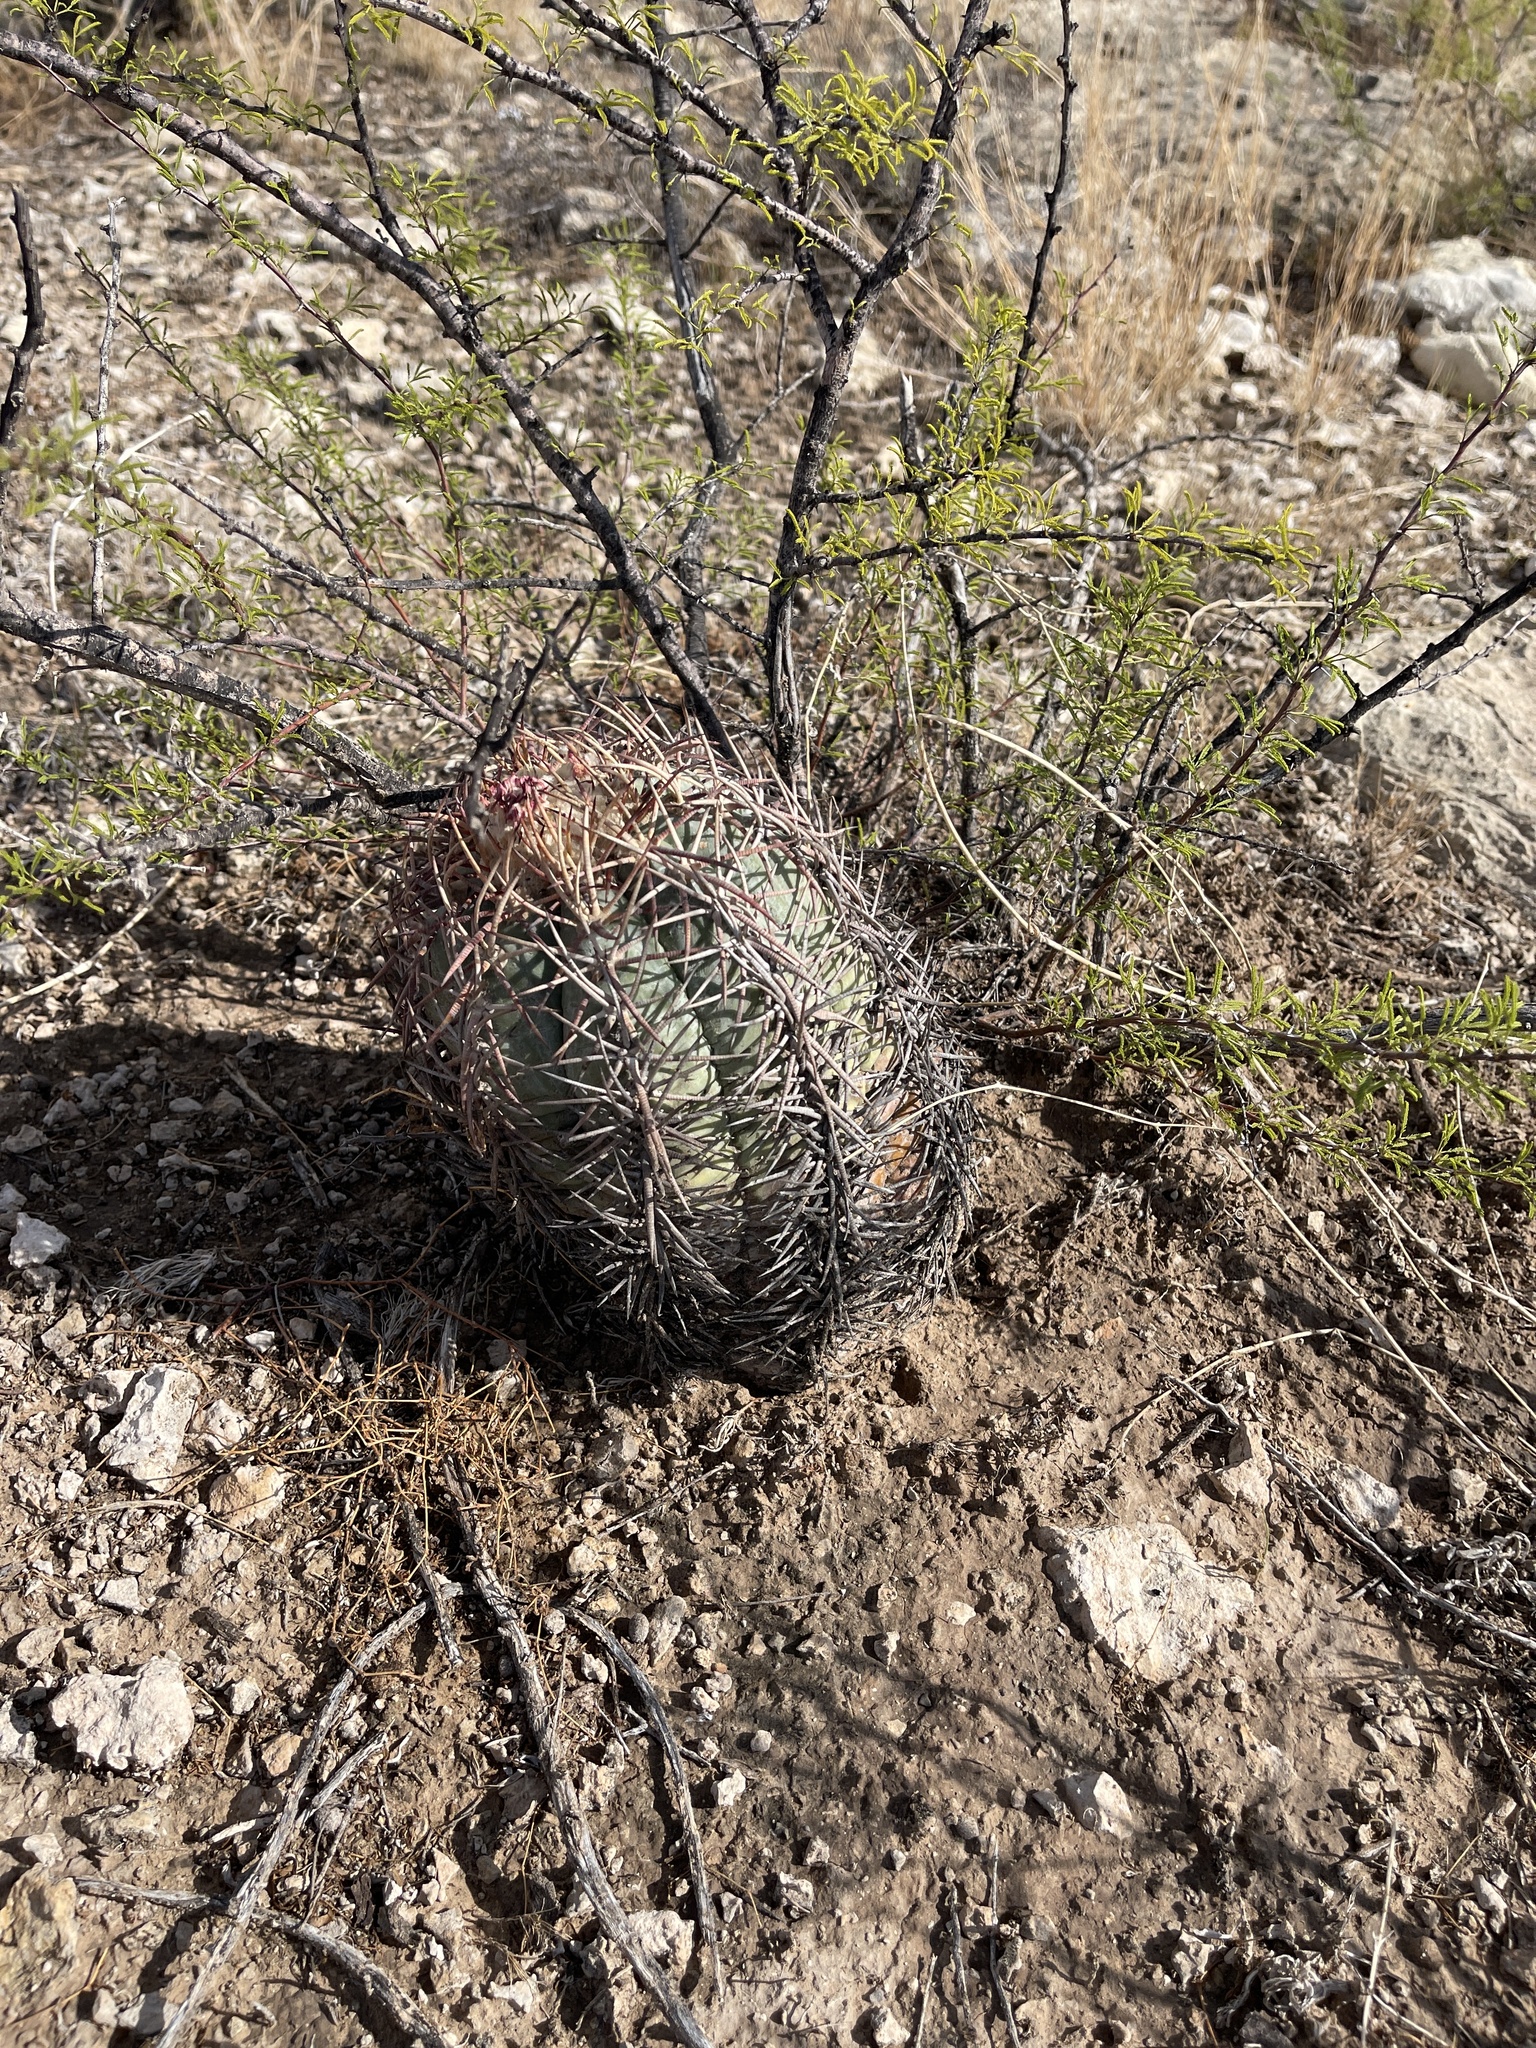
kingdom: Plantae
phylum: Tracheophyta
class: Magnoliopsida
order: Caryophyllales
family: Cactaceae
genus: Echinocactus
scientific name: Echinocactus horizonthalonius
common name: Devilshead
